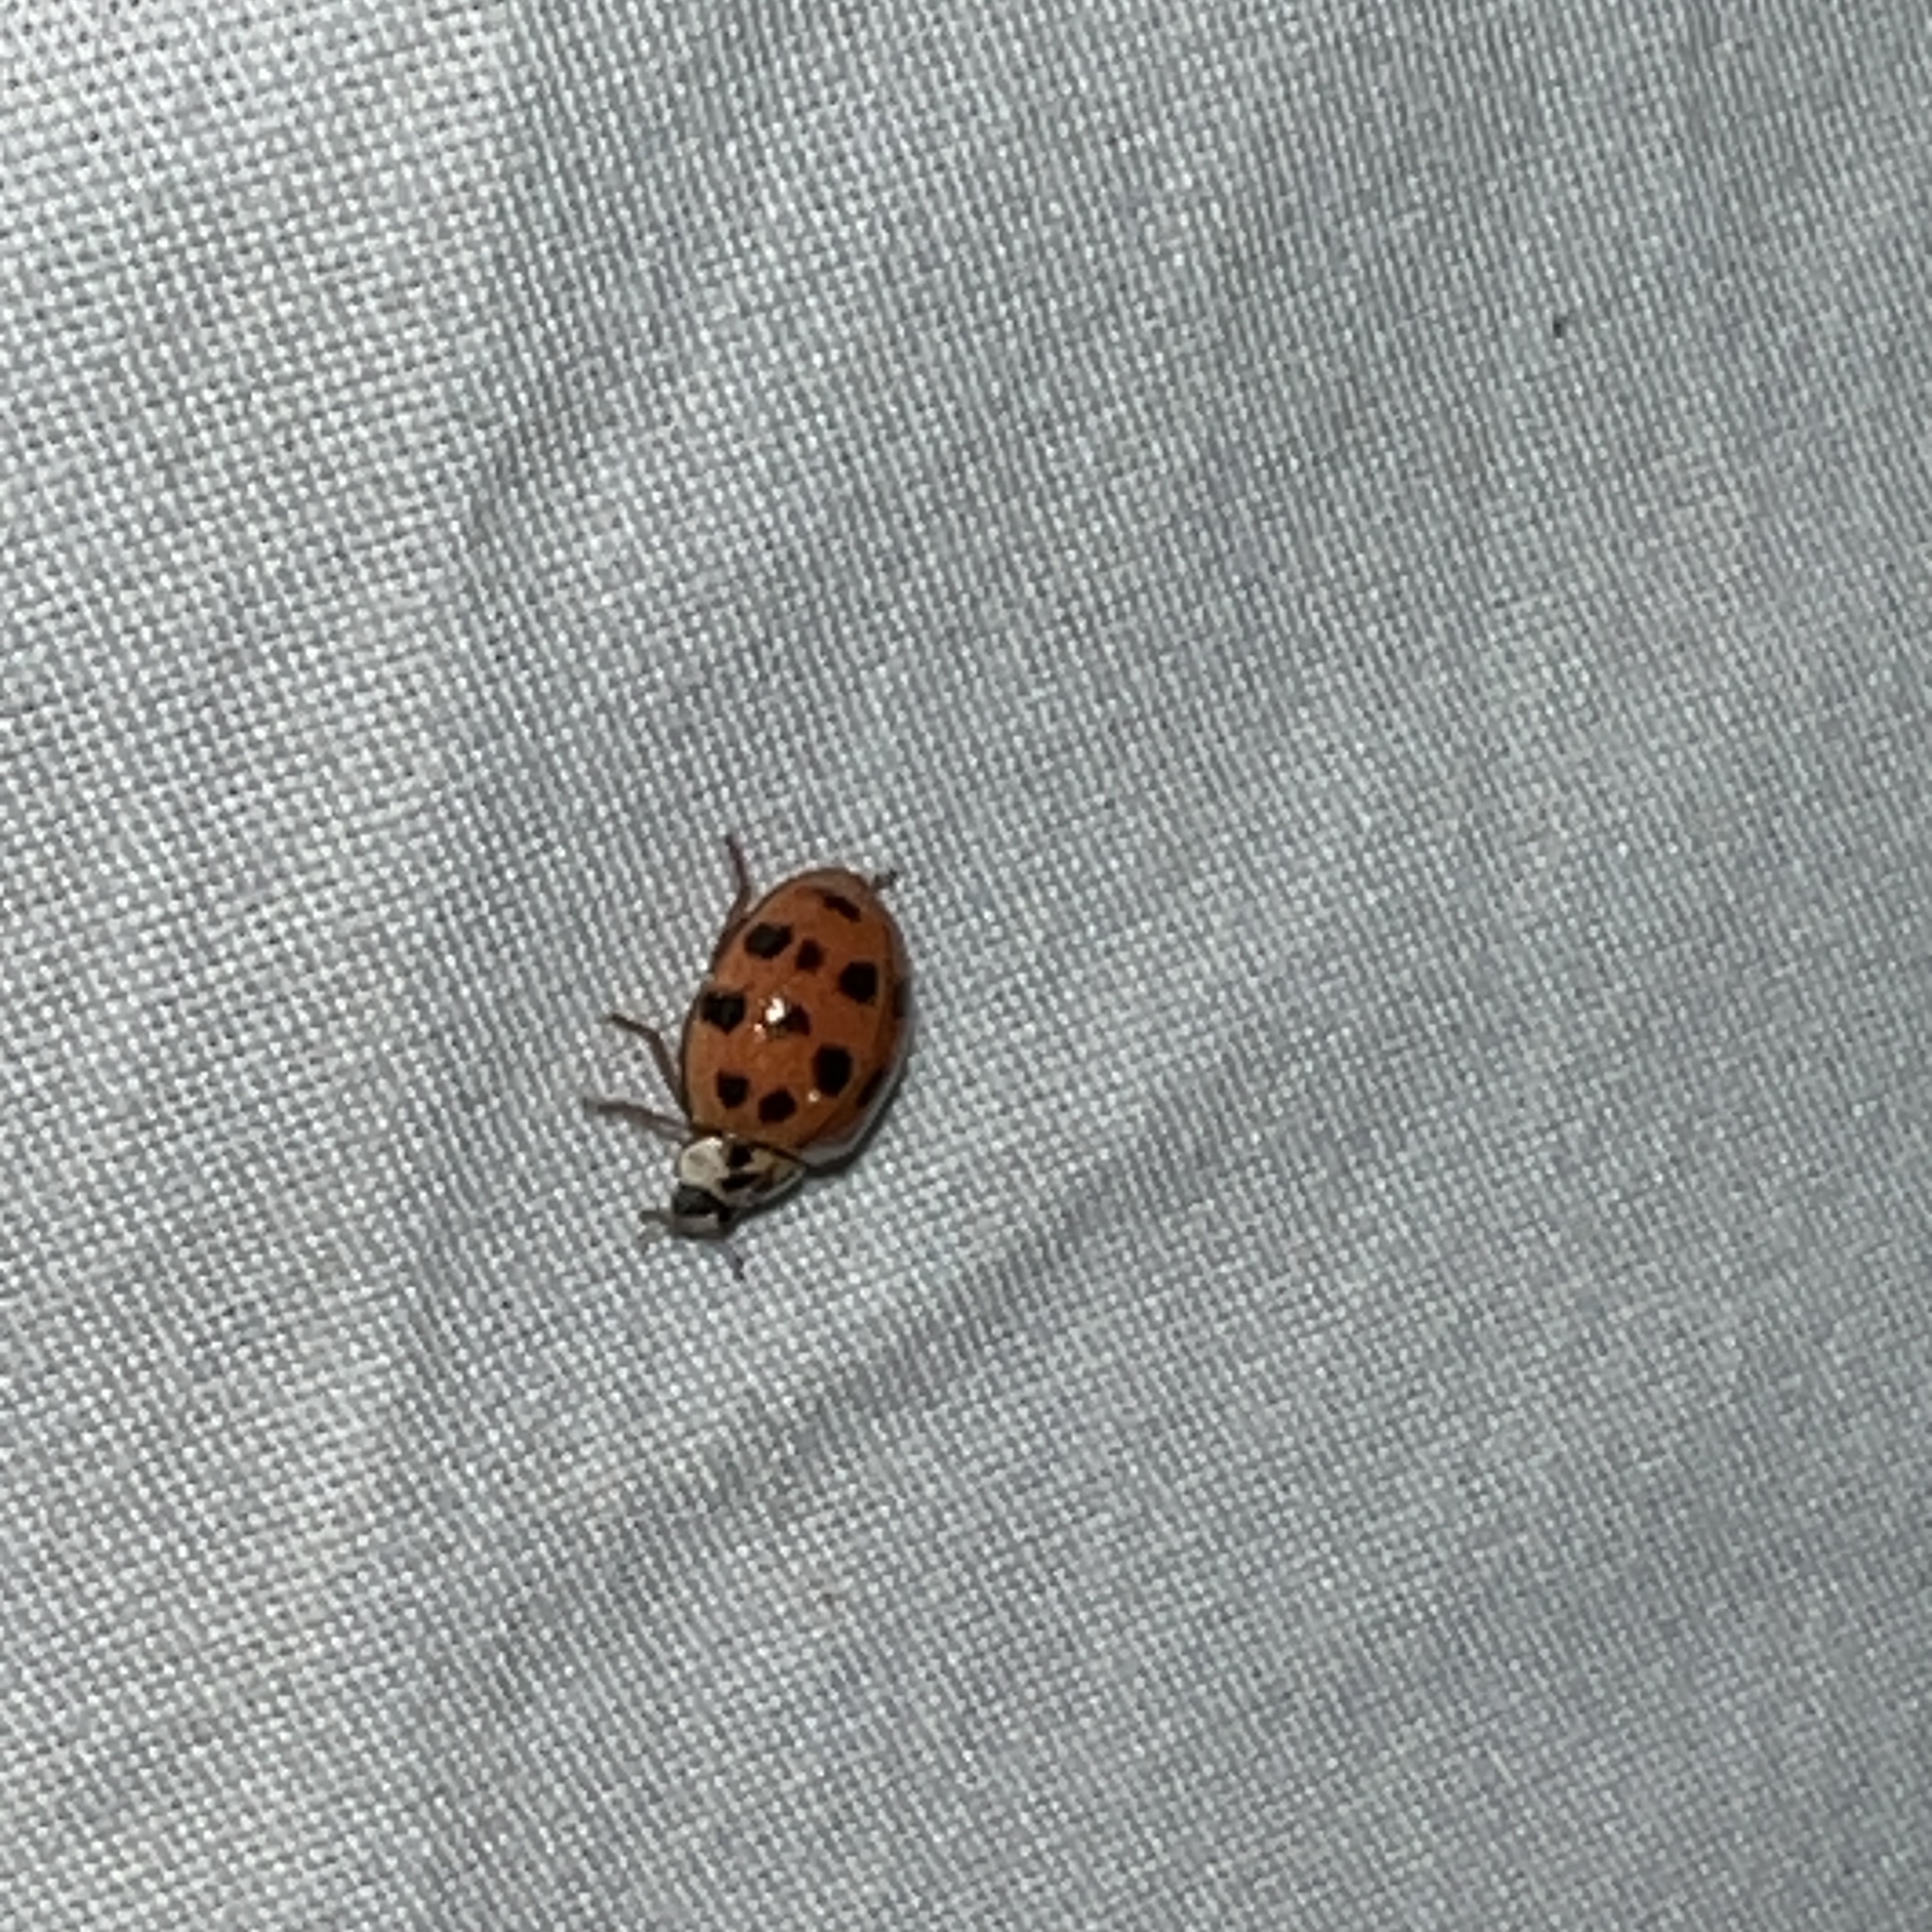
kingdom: Animalia
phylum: Arthropoda
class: Insecta
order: Coleoptera
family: Coccinellidae
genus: Harmonia
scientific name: Harmonia axyridis
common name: Harlequin ladybird
